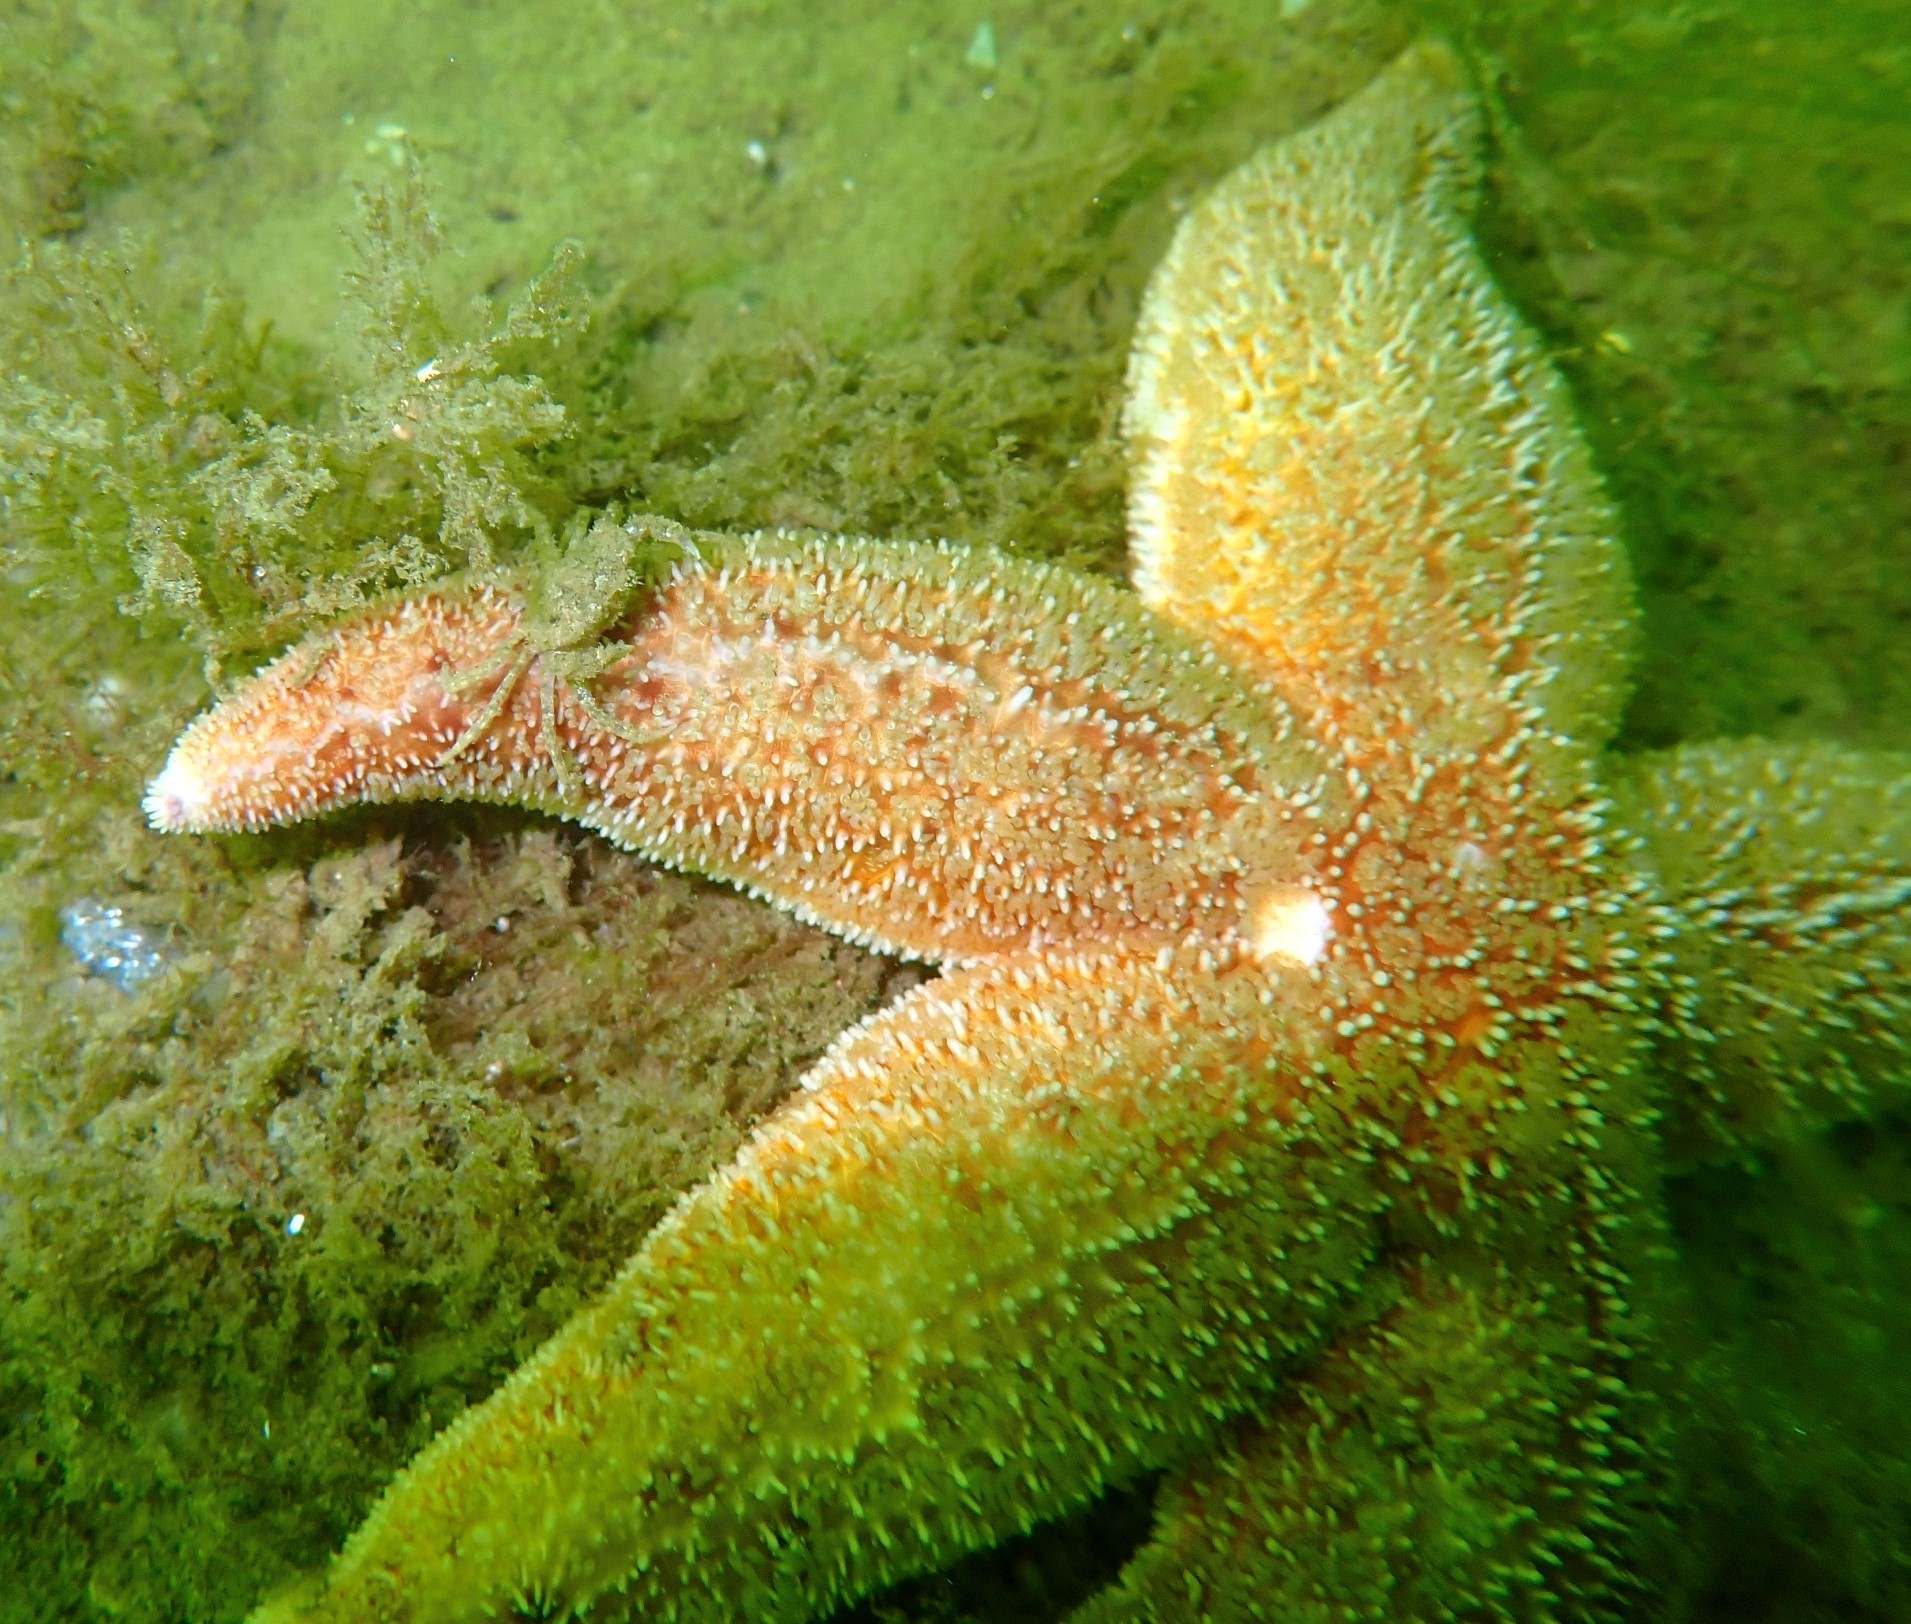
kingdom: Animalia
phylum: Arthropoda
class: Malacostraca
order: Decapoda
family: Carcinidae
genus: Carcinus
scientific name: Carcinus maenas
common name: European green crab
